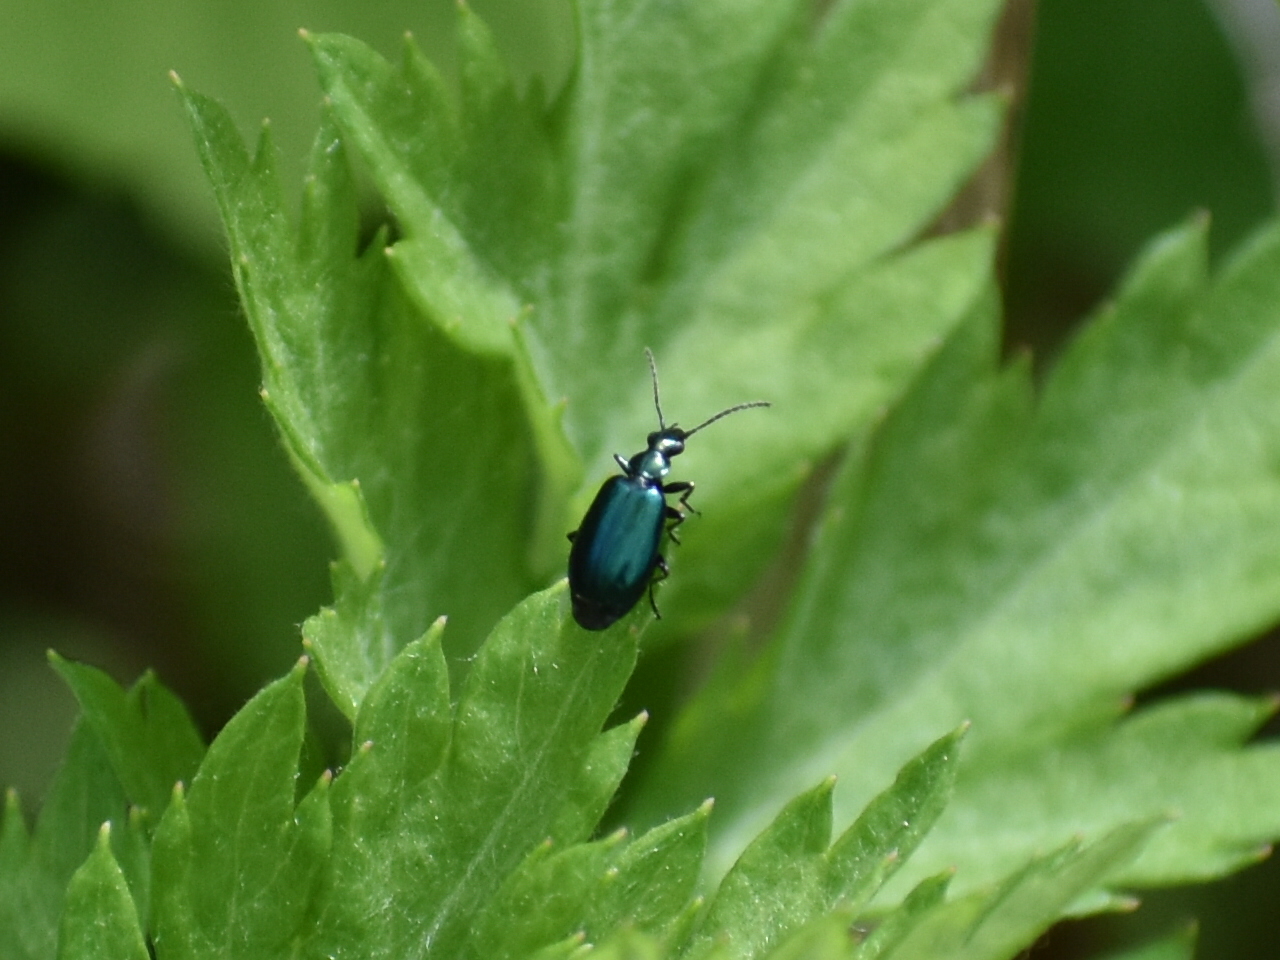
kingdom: Animalia
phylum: Arthropoda
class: Insecta
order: Coleoptera
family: Carabidae
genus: Lebia
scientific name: Lebia viridis
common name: Flower lebia beetle
